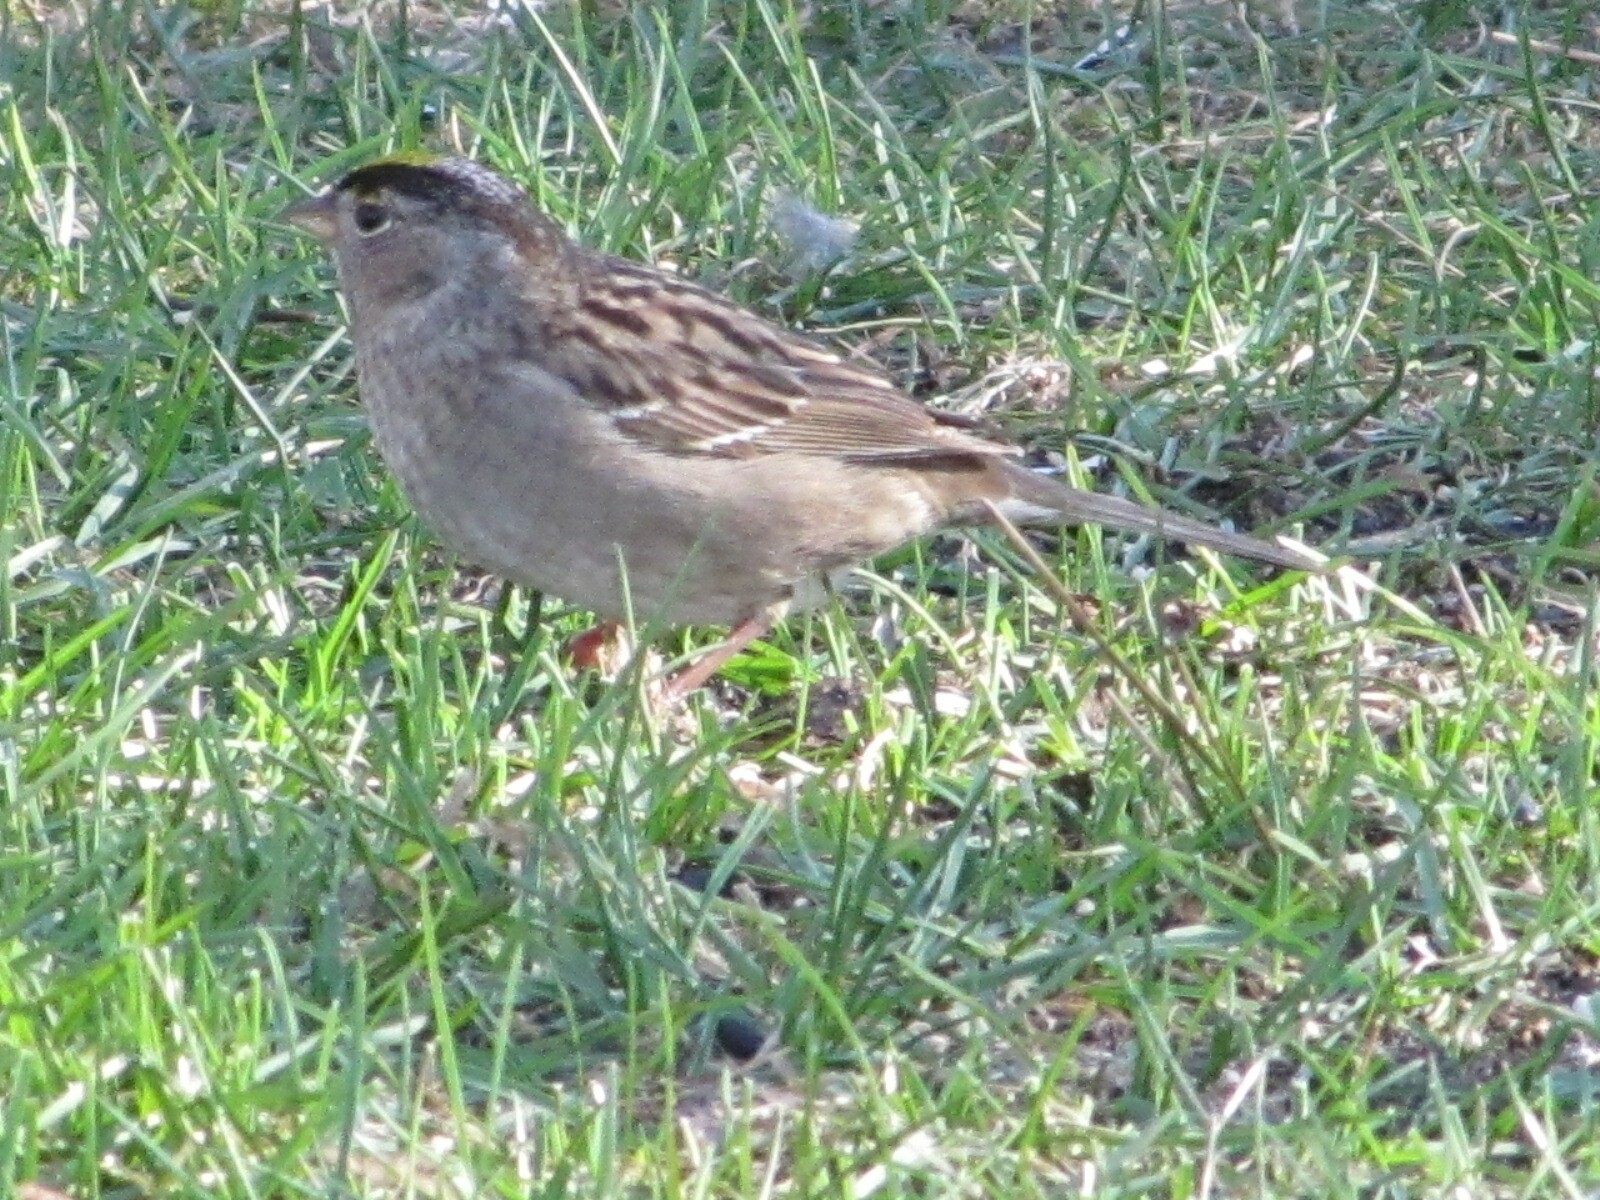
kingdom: Animalia
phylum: Chordata
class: Aves
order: Passeriformes
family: Passerellidae
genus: Zonotrichia
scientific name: Zonotrichia atricapilla
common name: Golden-crowned sparrow
